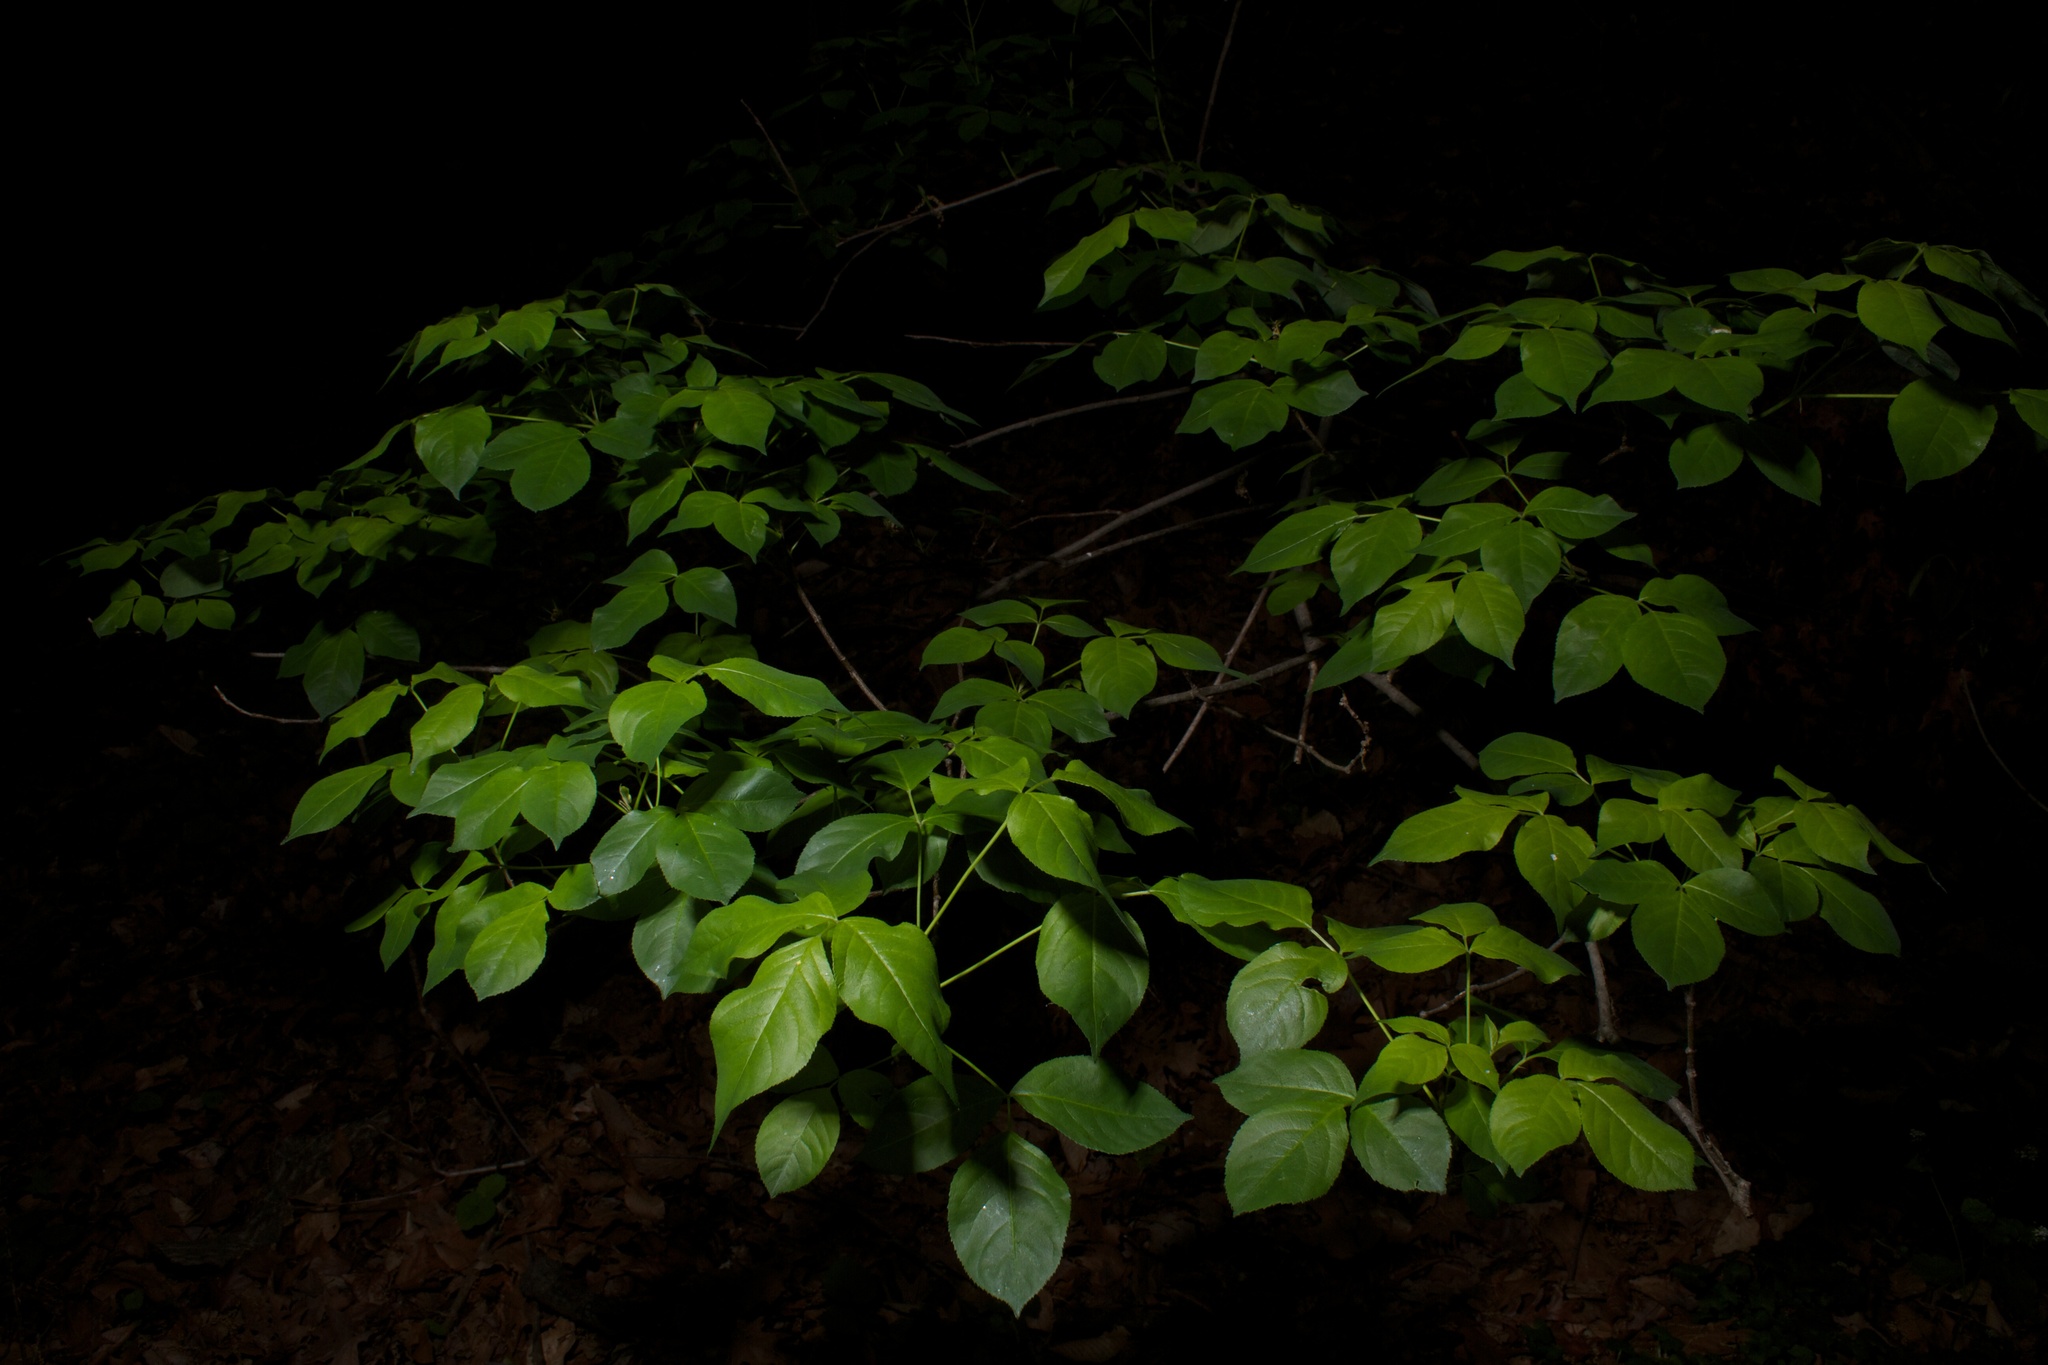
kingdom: Plantae
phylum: Tracheophyta
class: Magnoliopsida
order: Crossosomatales
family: Staphyleaceae
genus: Staphylea
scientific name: Staphylea trifolia
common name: American bladdernut
